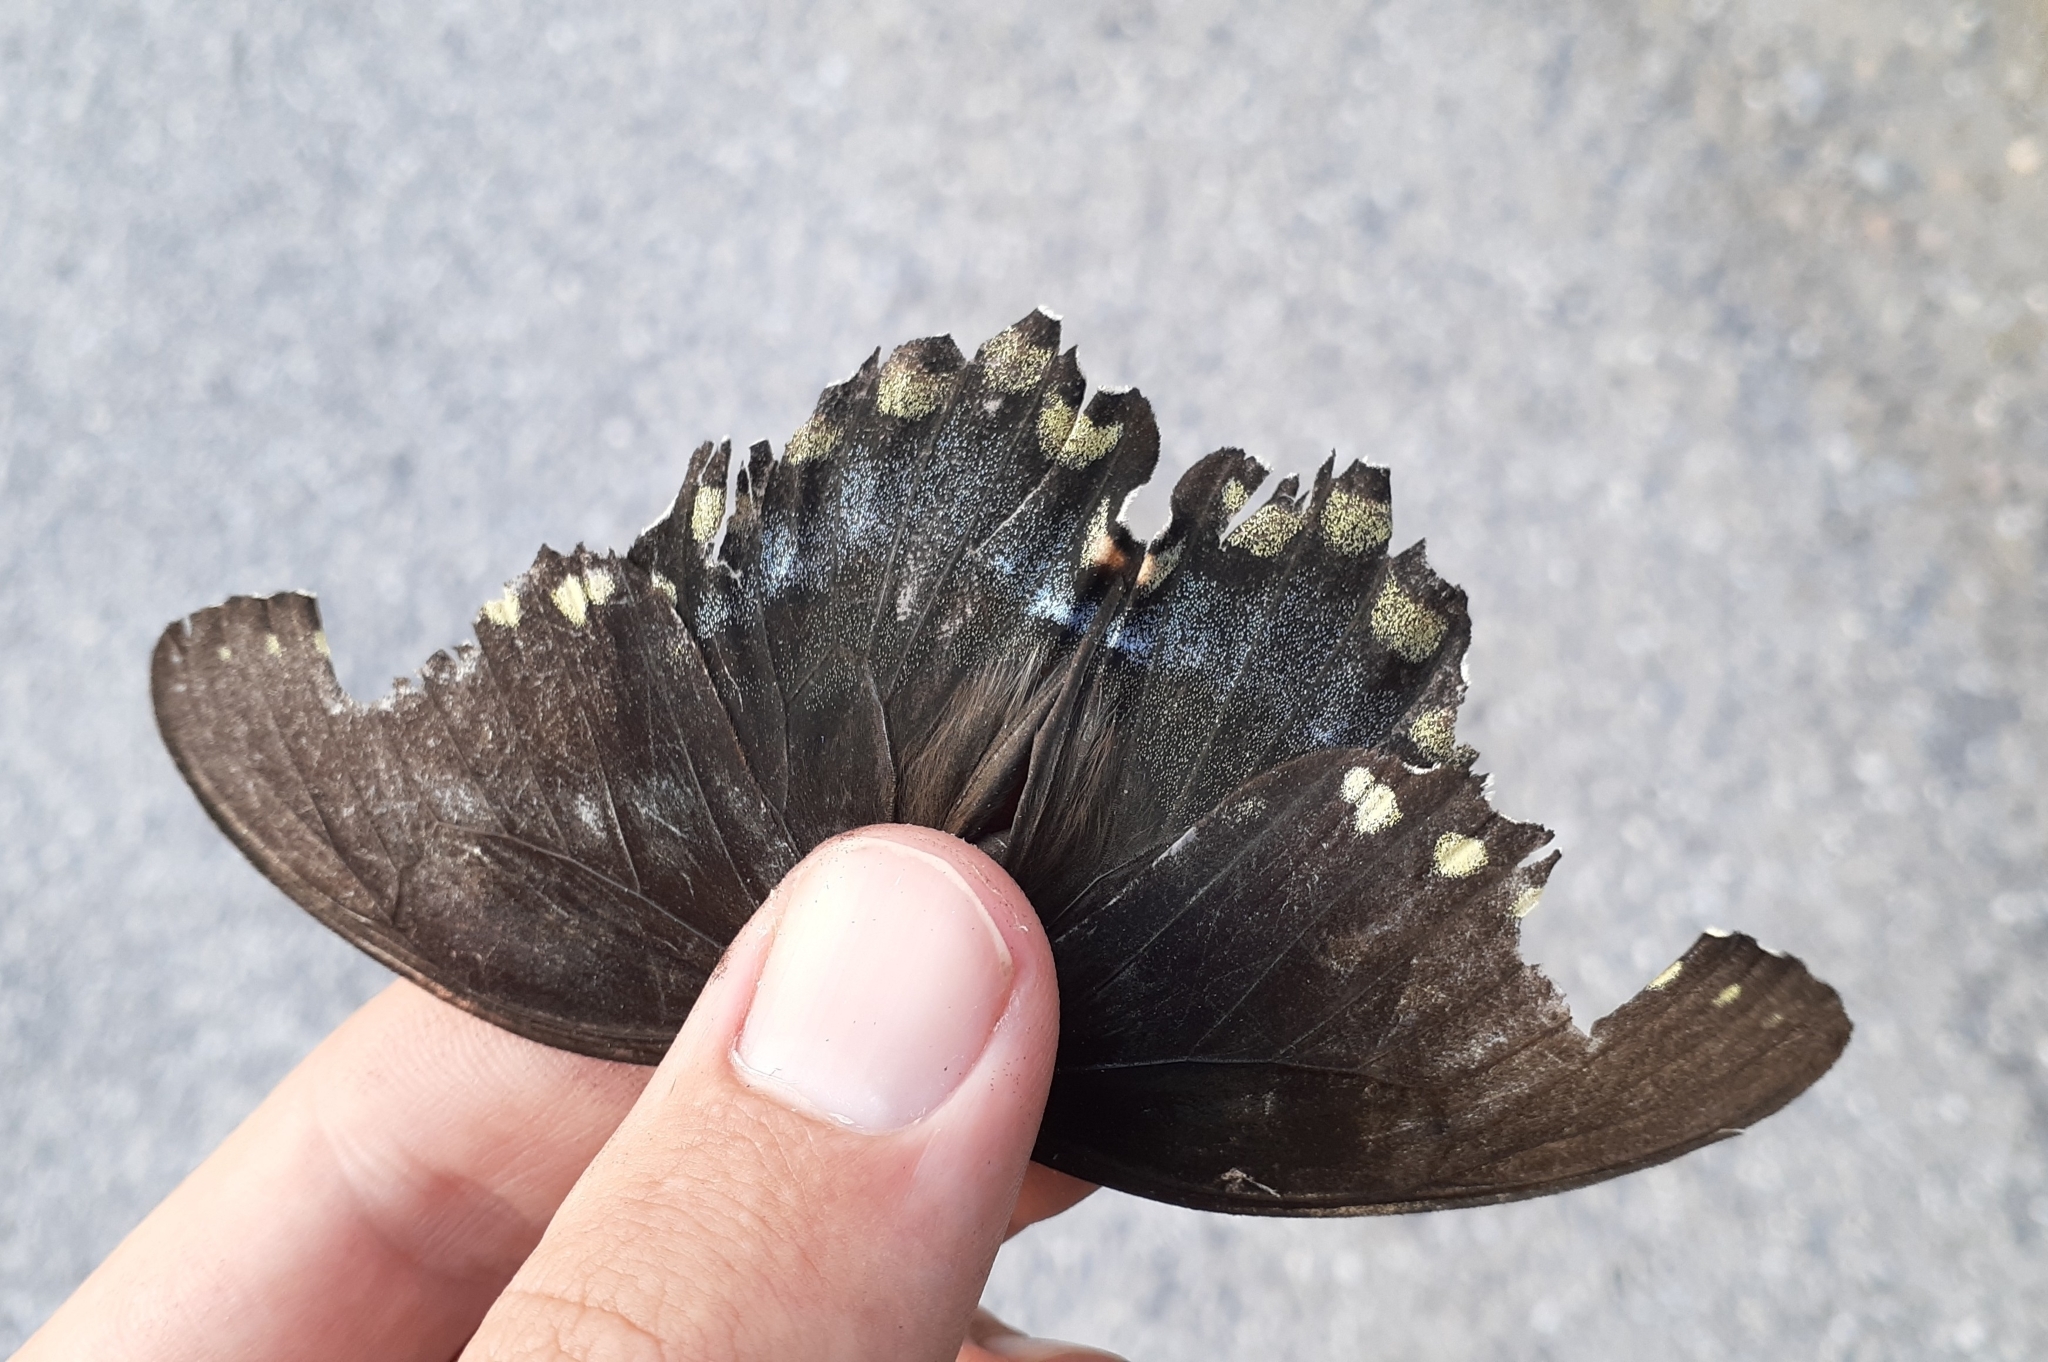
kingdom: Animalia
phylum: Arthropoda
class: Insecta
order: Lepidoptera
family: Papilionidae
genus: Papilio
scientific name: Papilio troilus
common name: Spicebush swallowtail
